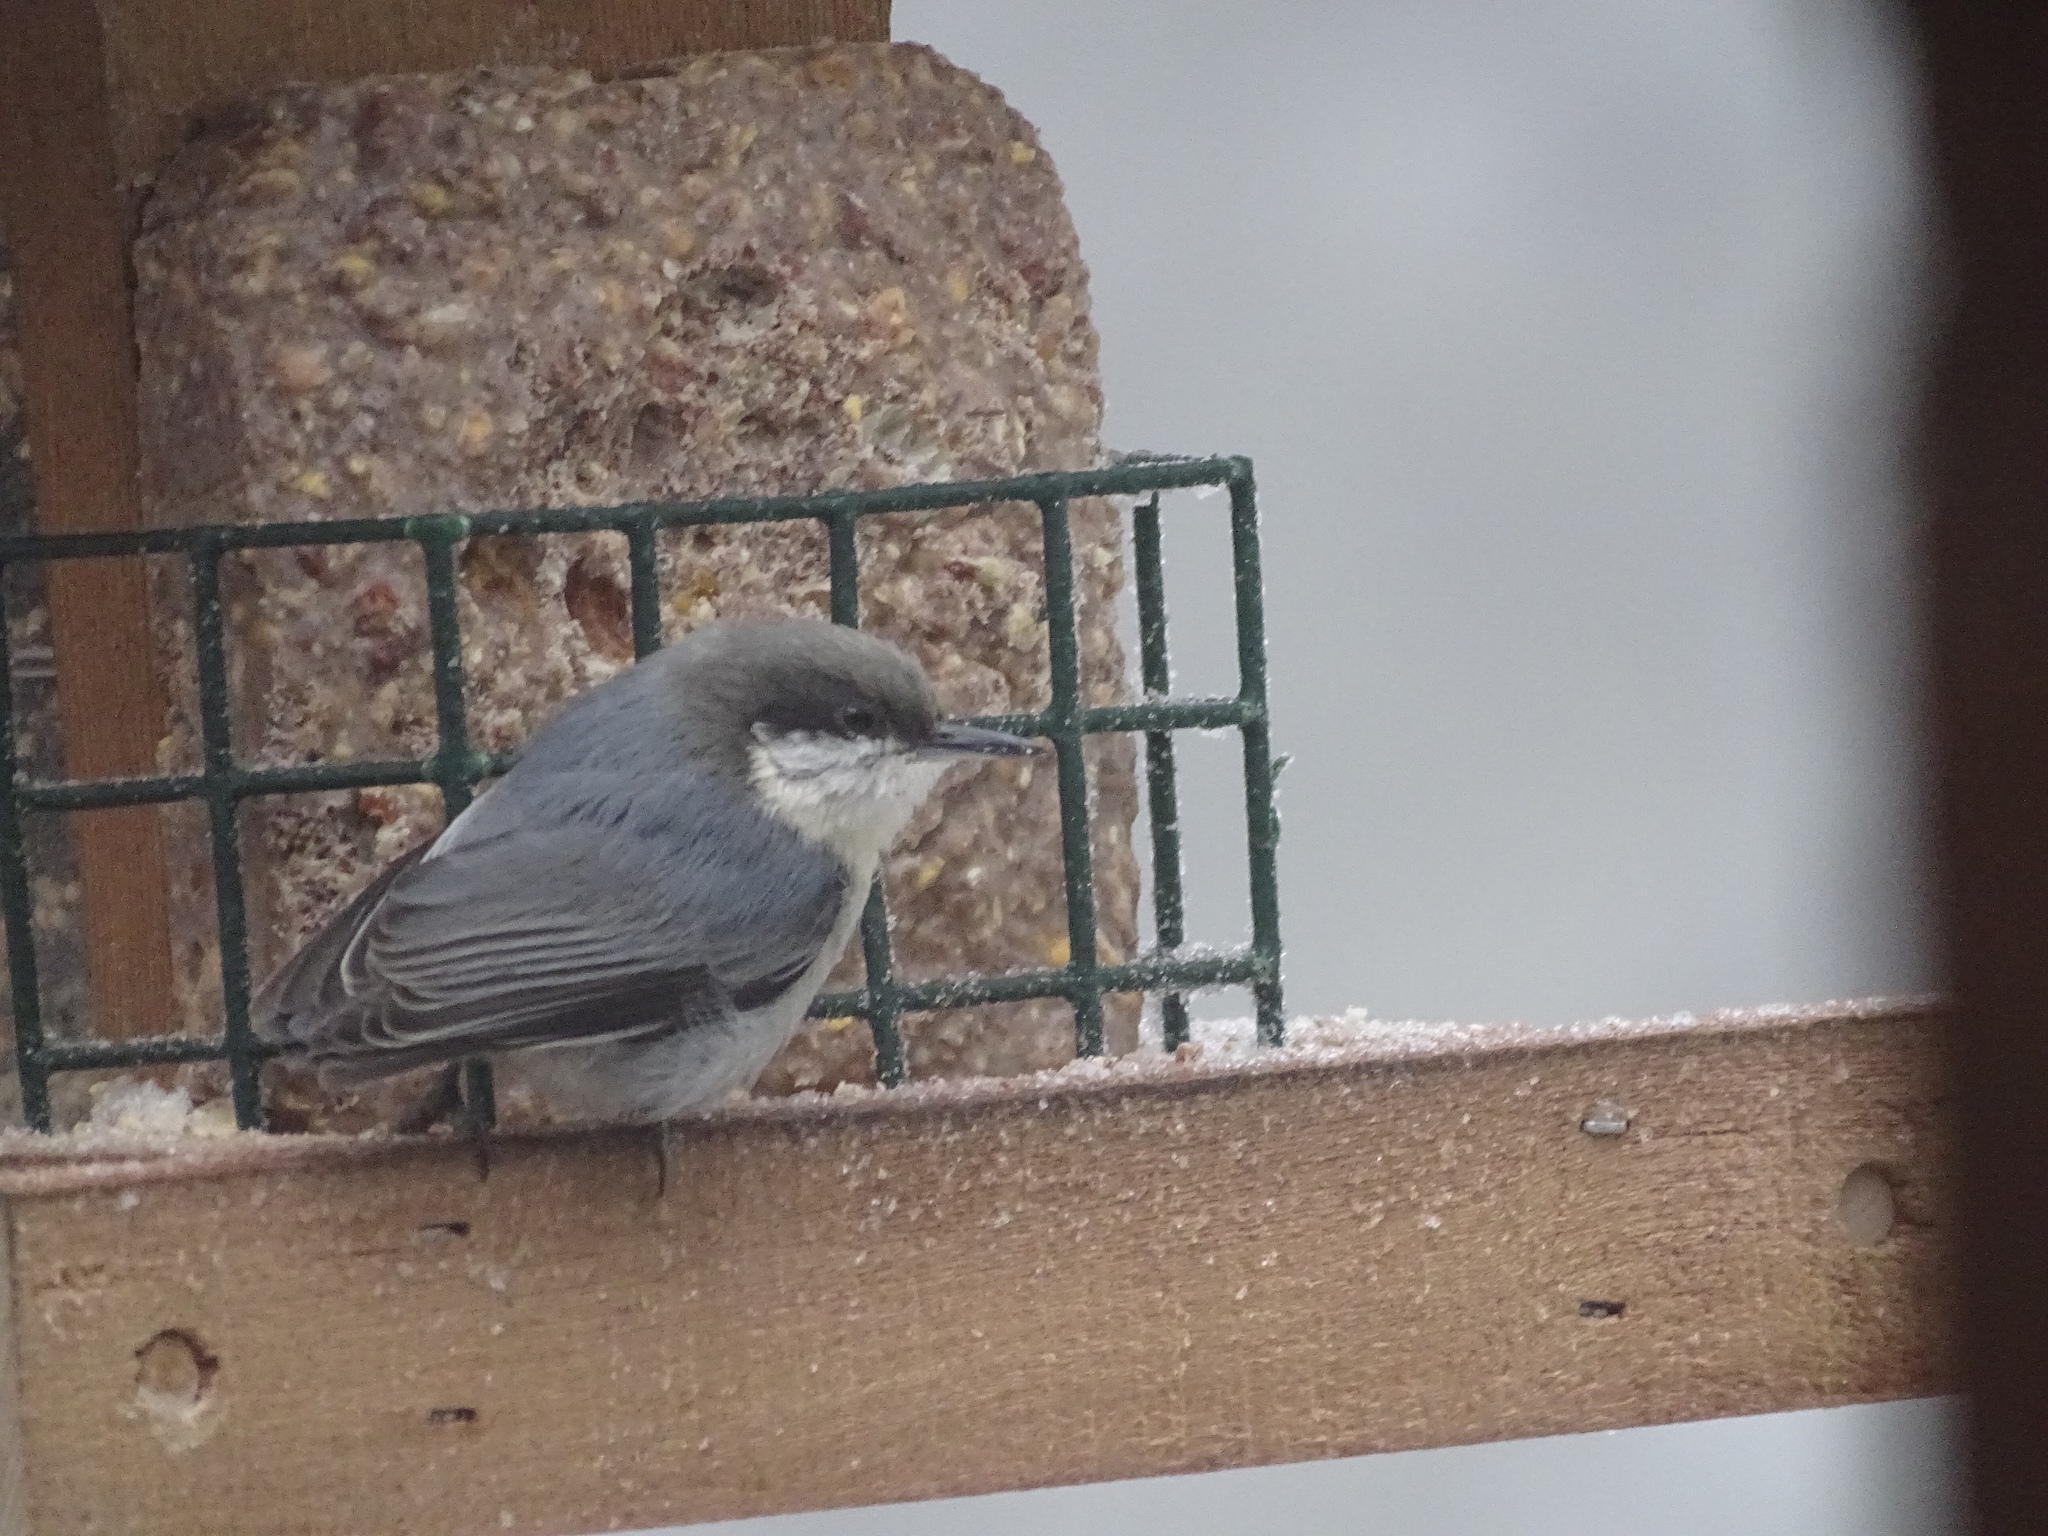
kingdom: Animalia
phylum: Chordata
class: Aves
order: Passeriformes
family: Sittidae
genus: Sitta
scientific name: Sitta pygmaea
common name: Pygmy nuthatch
